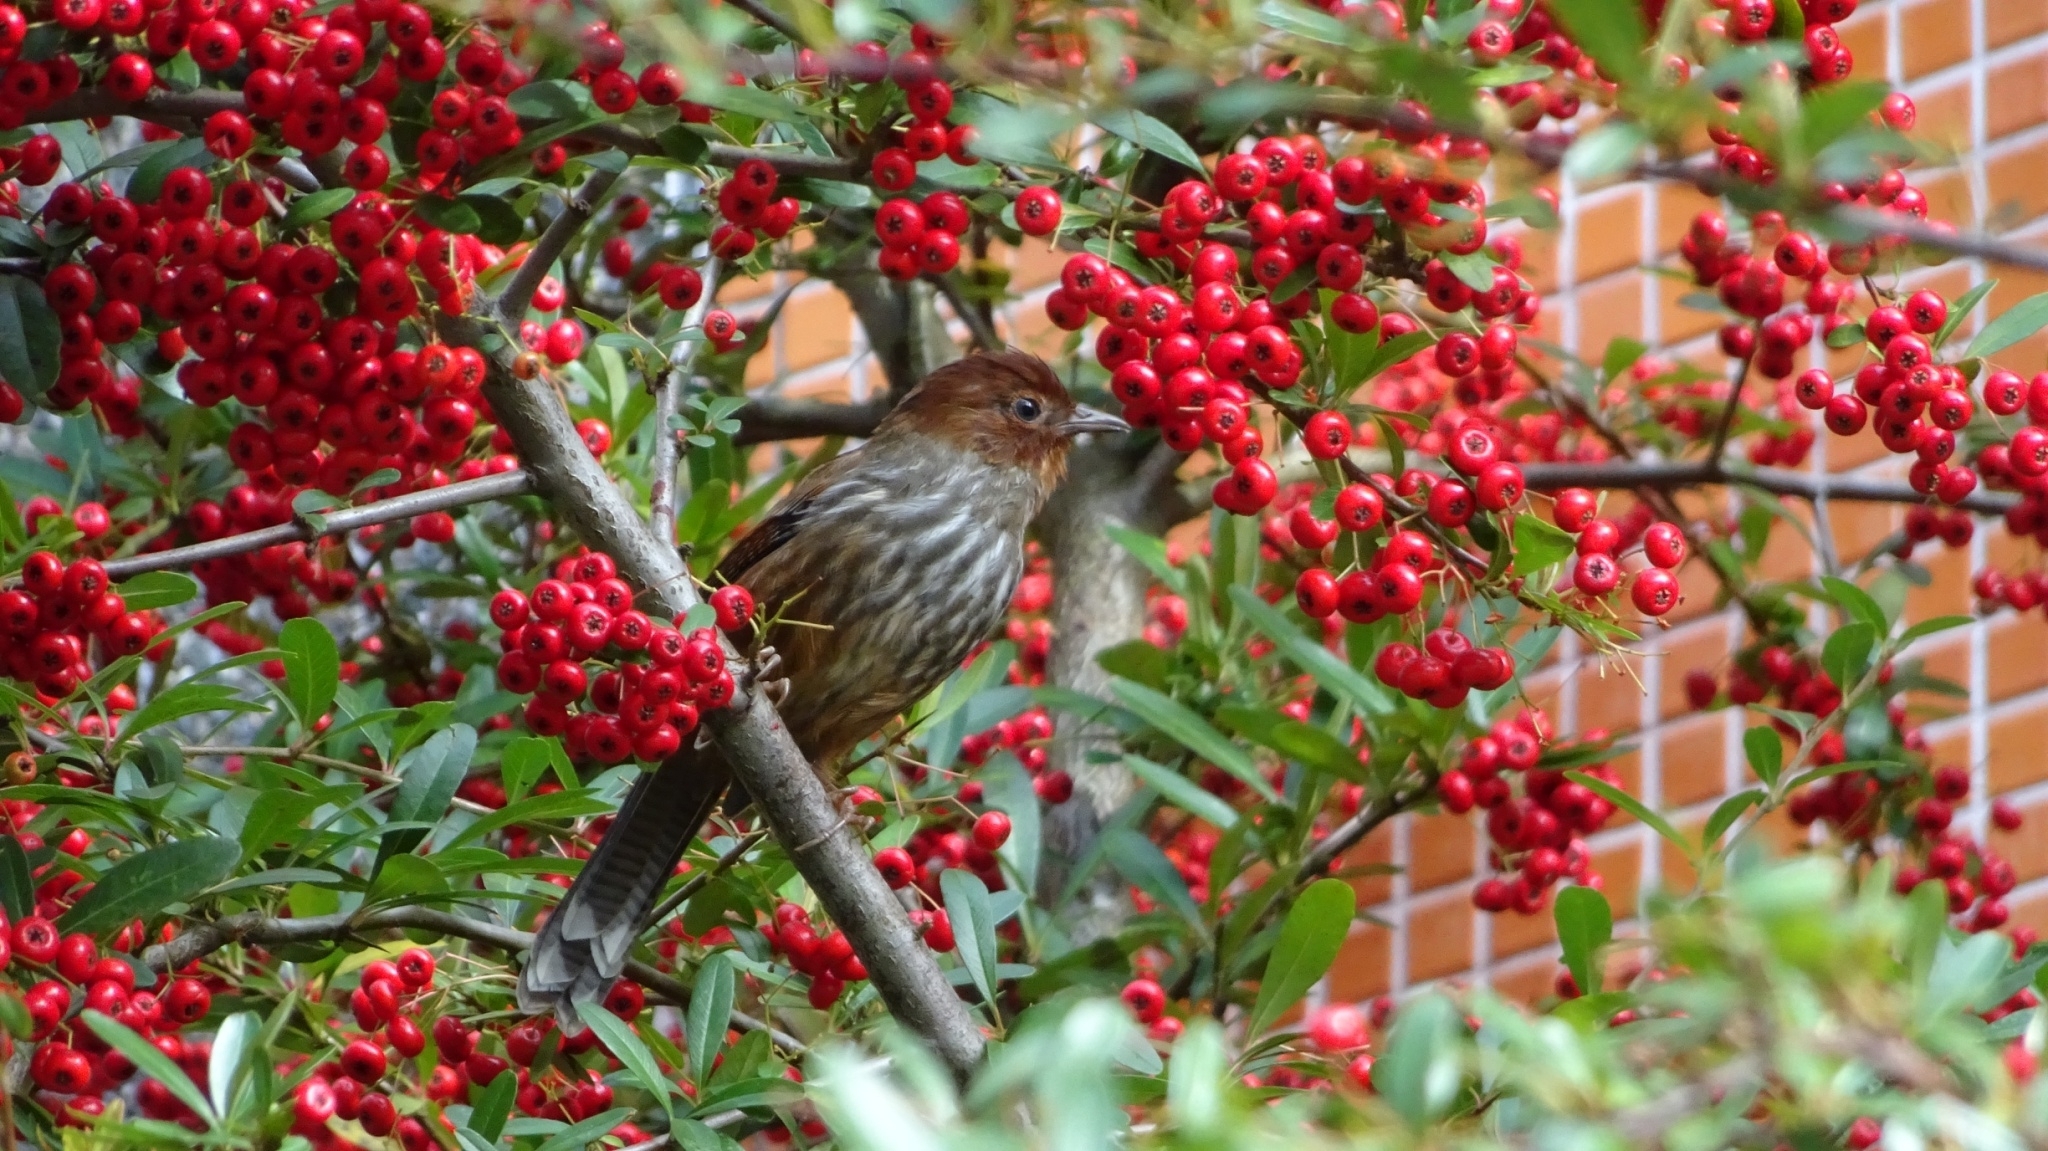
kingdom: Animalia
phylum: Chordata
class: Aves
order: Passeriformes
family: Leiothrichidae
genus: Actinodura
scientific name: Actinodura morrisoniana
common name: Taiwan barwing
